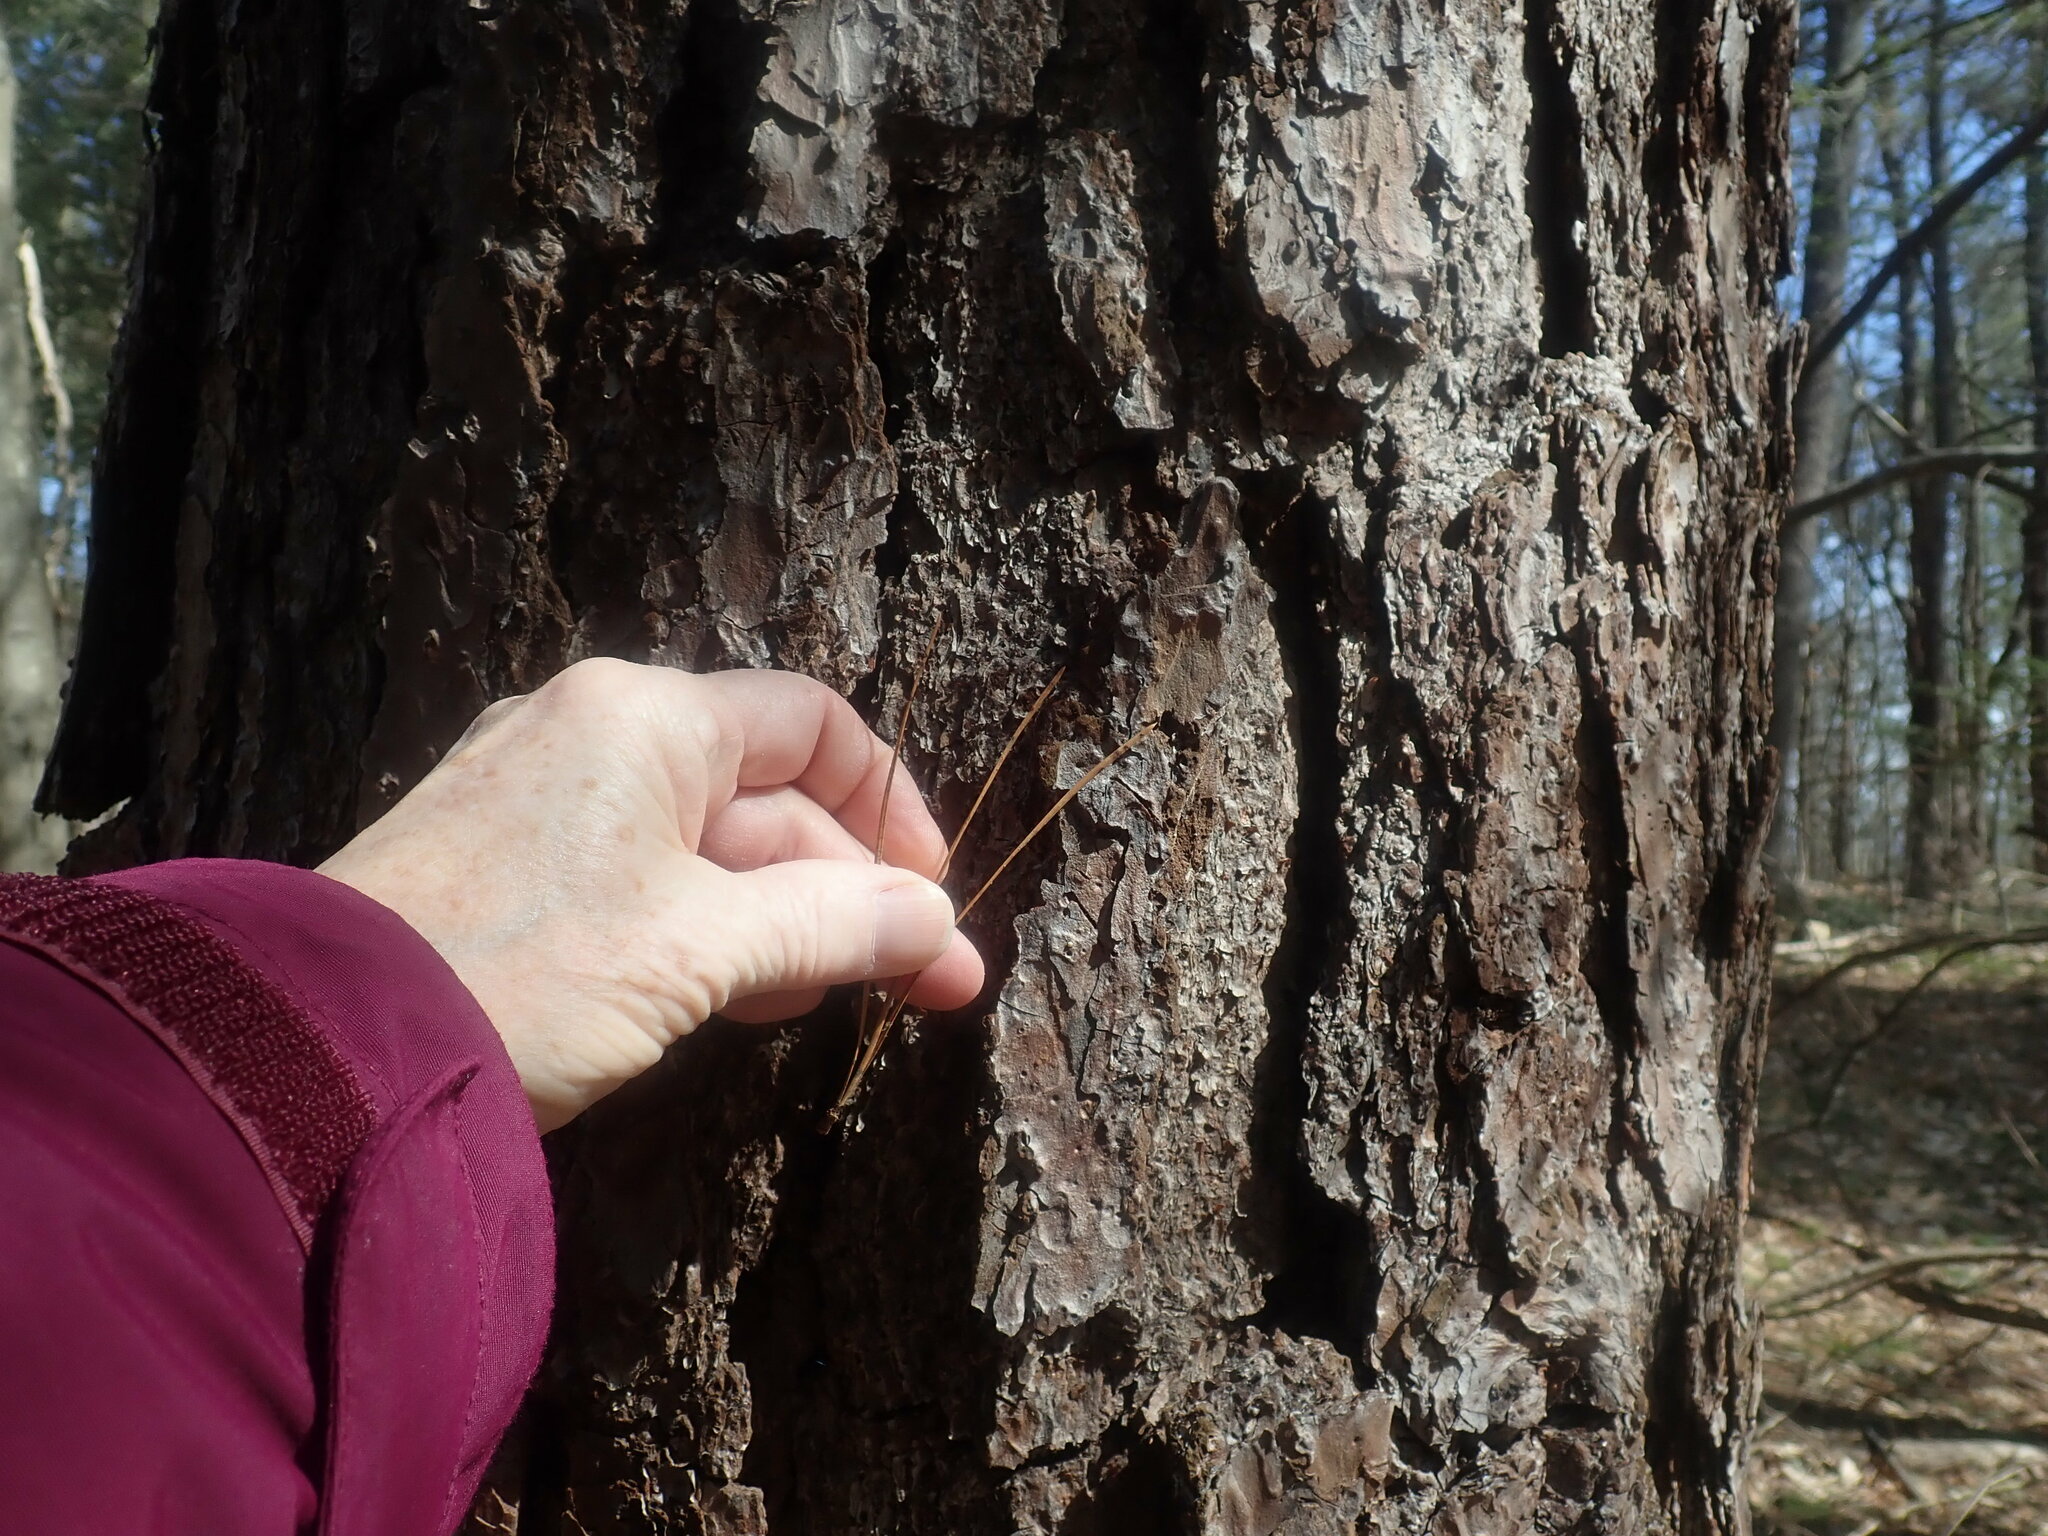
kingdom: Plantae
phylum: Tracheophyta
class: Pinopsida
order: Pinales
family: Pinaceae
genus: Pinus
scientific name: Pinus rigida
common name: Pitch pine
